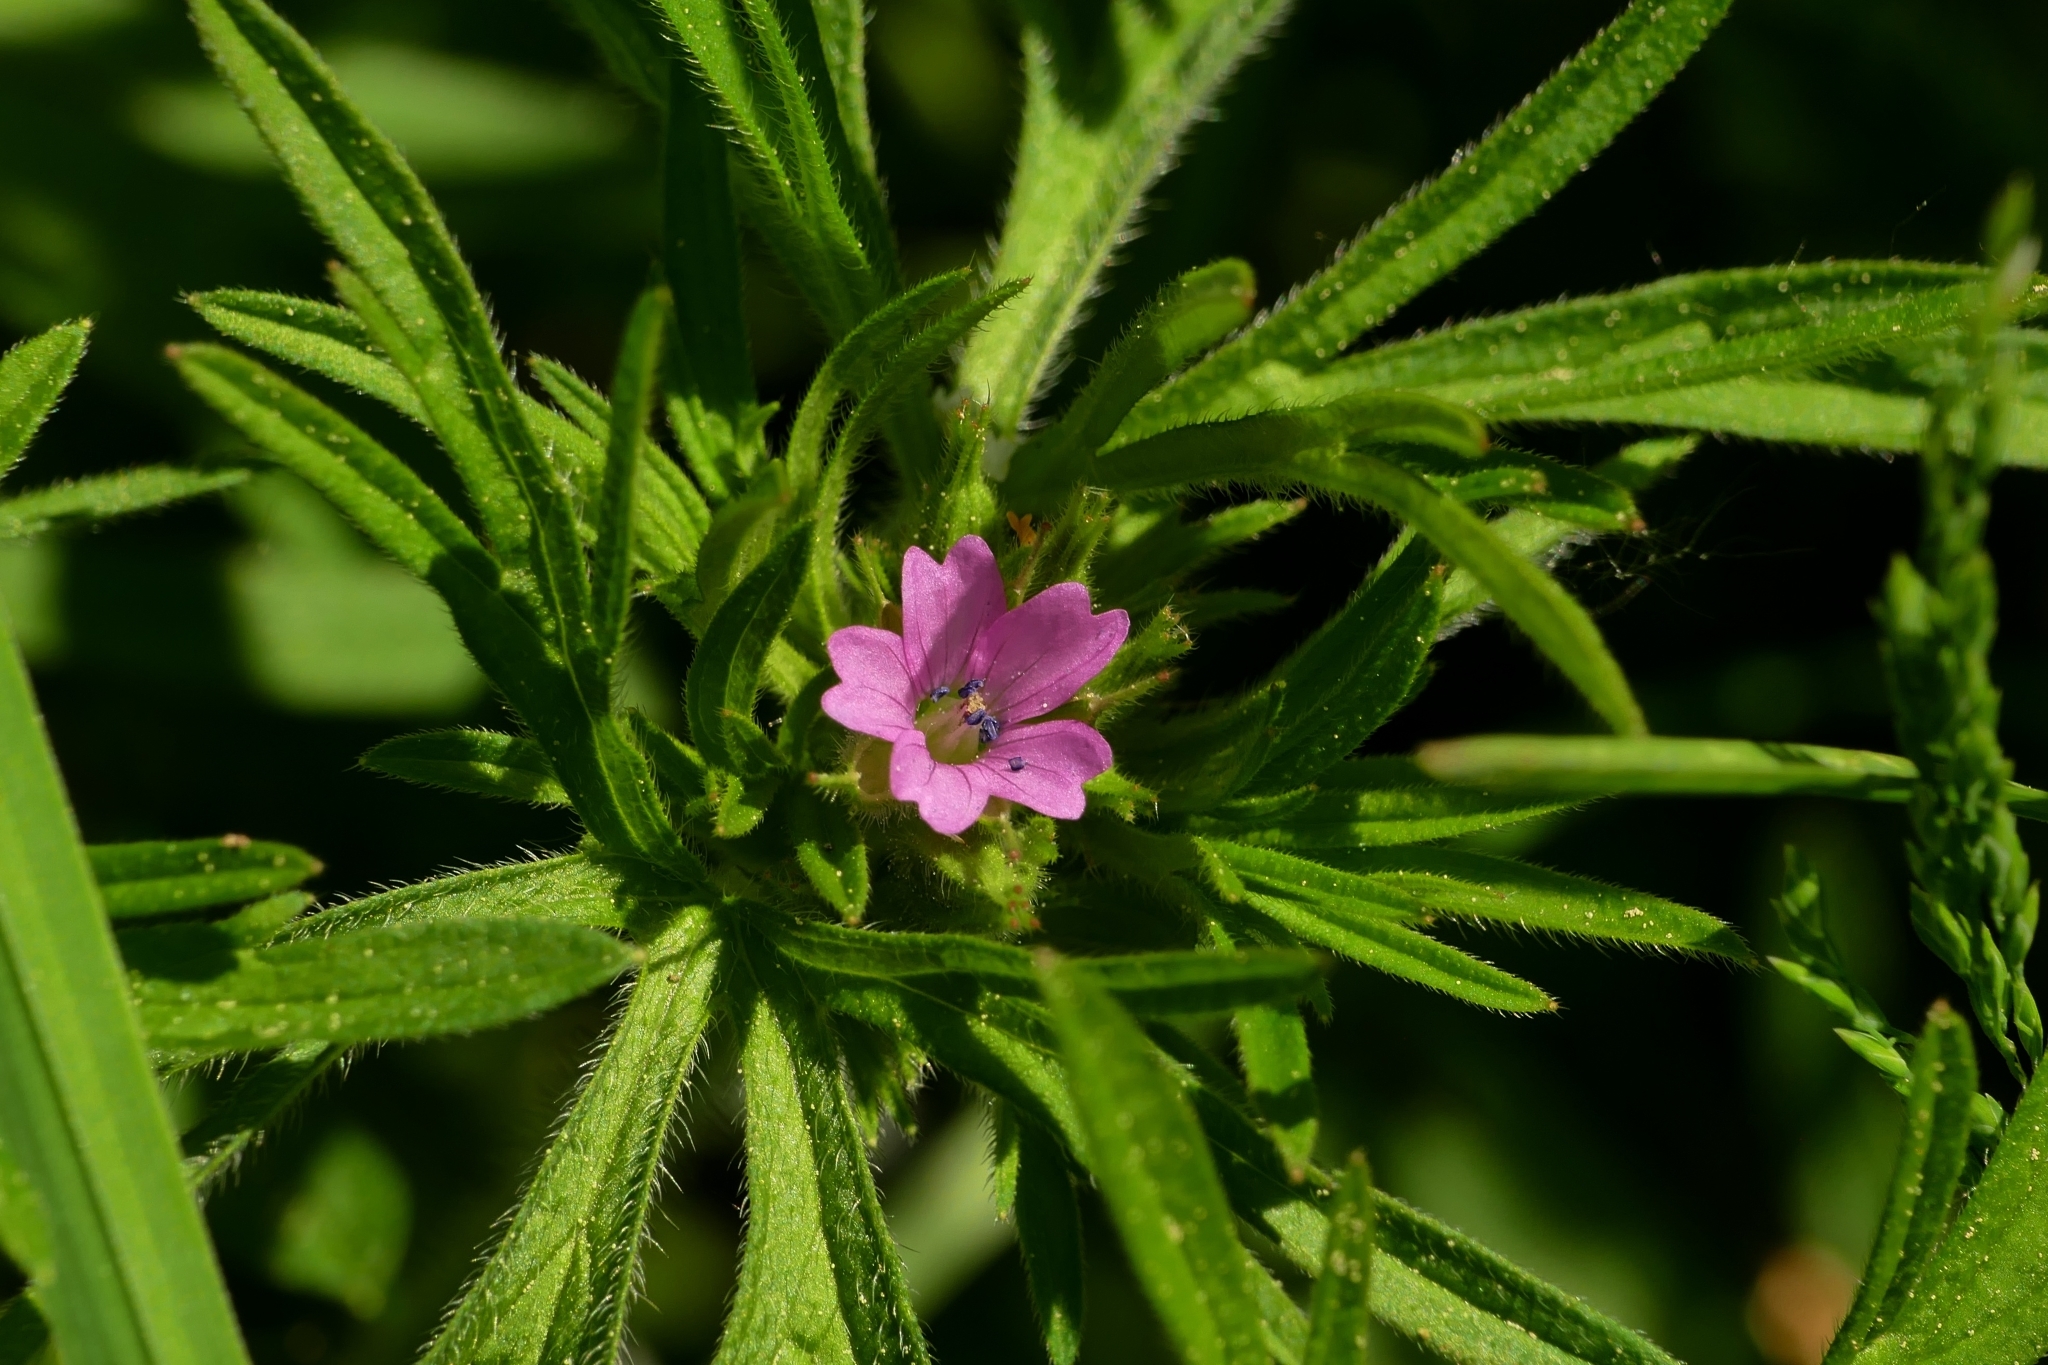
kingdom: Plantae
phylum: Tracheophyta
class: Magnoliopsida
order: Geraniales
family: Geraniaceae
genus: Geranium
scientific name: Geranium dissectum
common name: Cut-leaved crane's-bill
